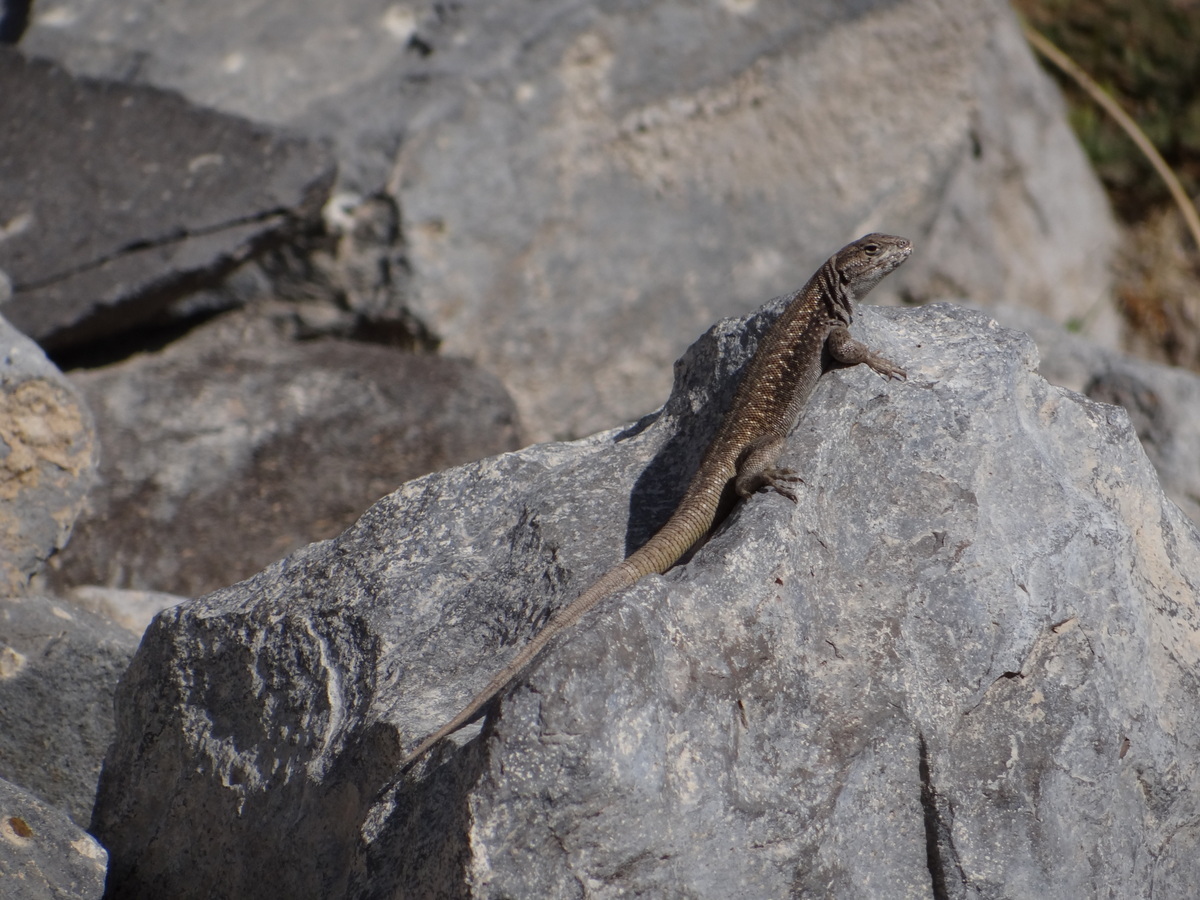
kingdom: Animalia
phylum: Chordata
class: Squamata
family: Liolaemidae
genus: Liolaemus
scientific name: Liolaemus smaug
